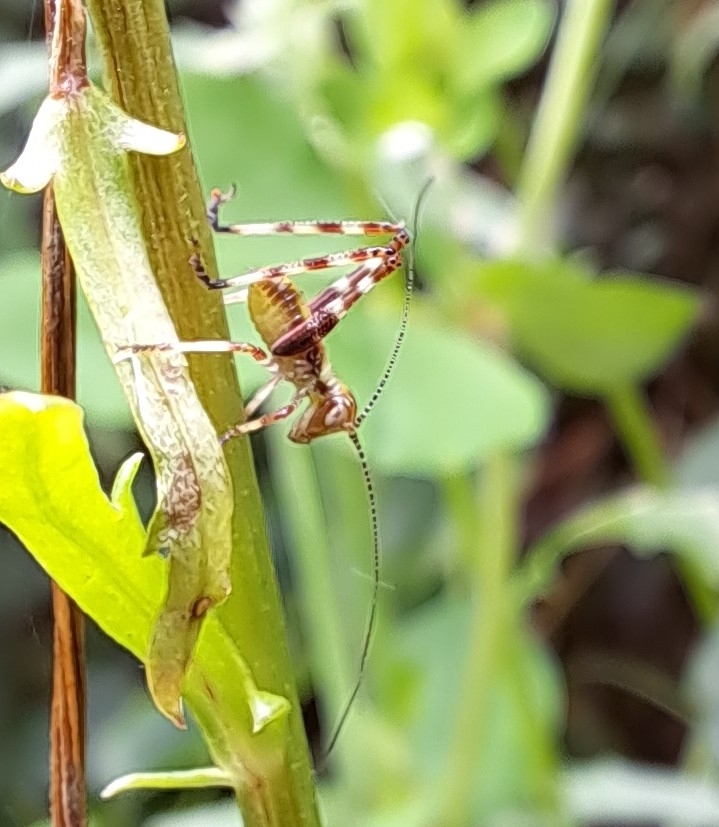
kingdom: Animalia
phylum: Arthropoda
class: Insecta
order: Orthoptera
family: Tettigoniidae
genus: Caedicia
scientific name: Caedicia simplex
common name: Common garden katydid
